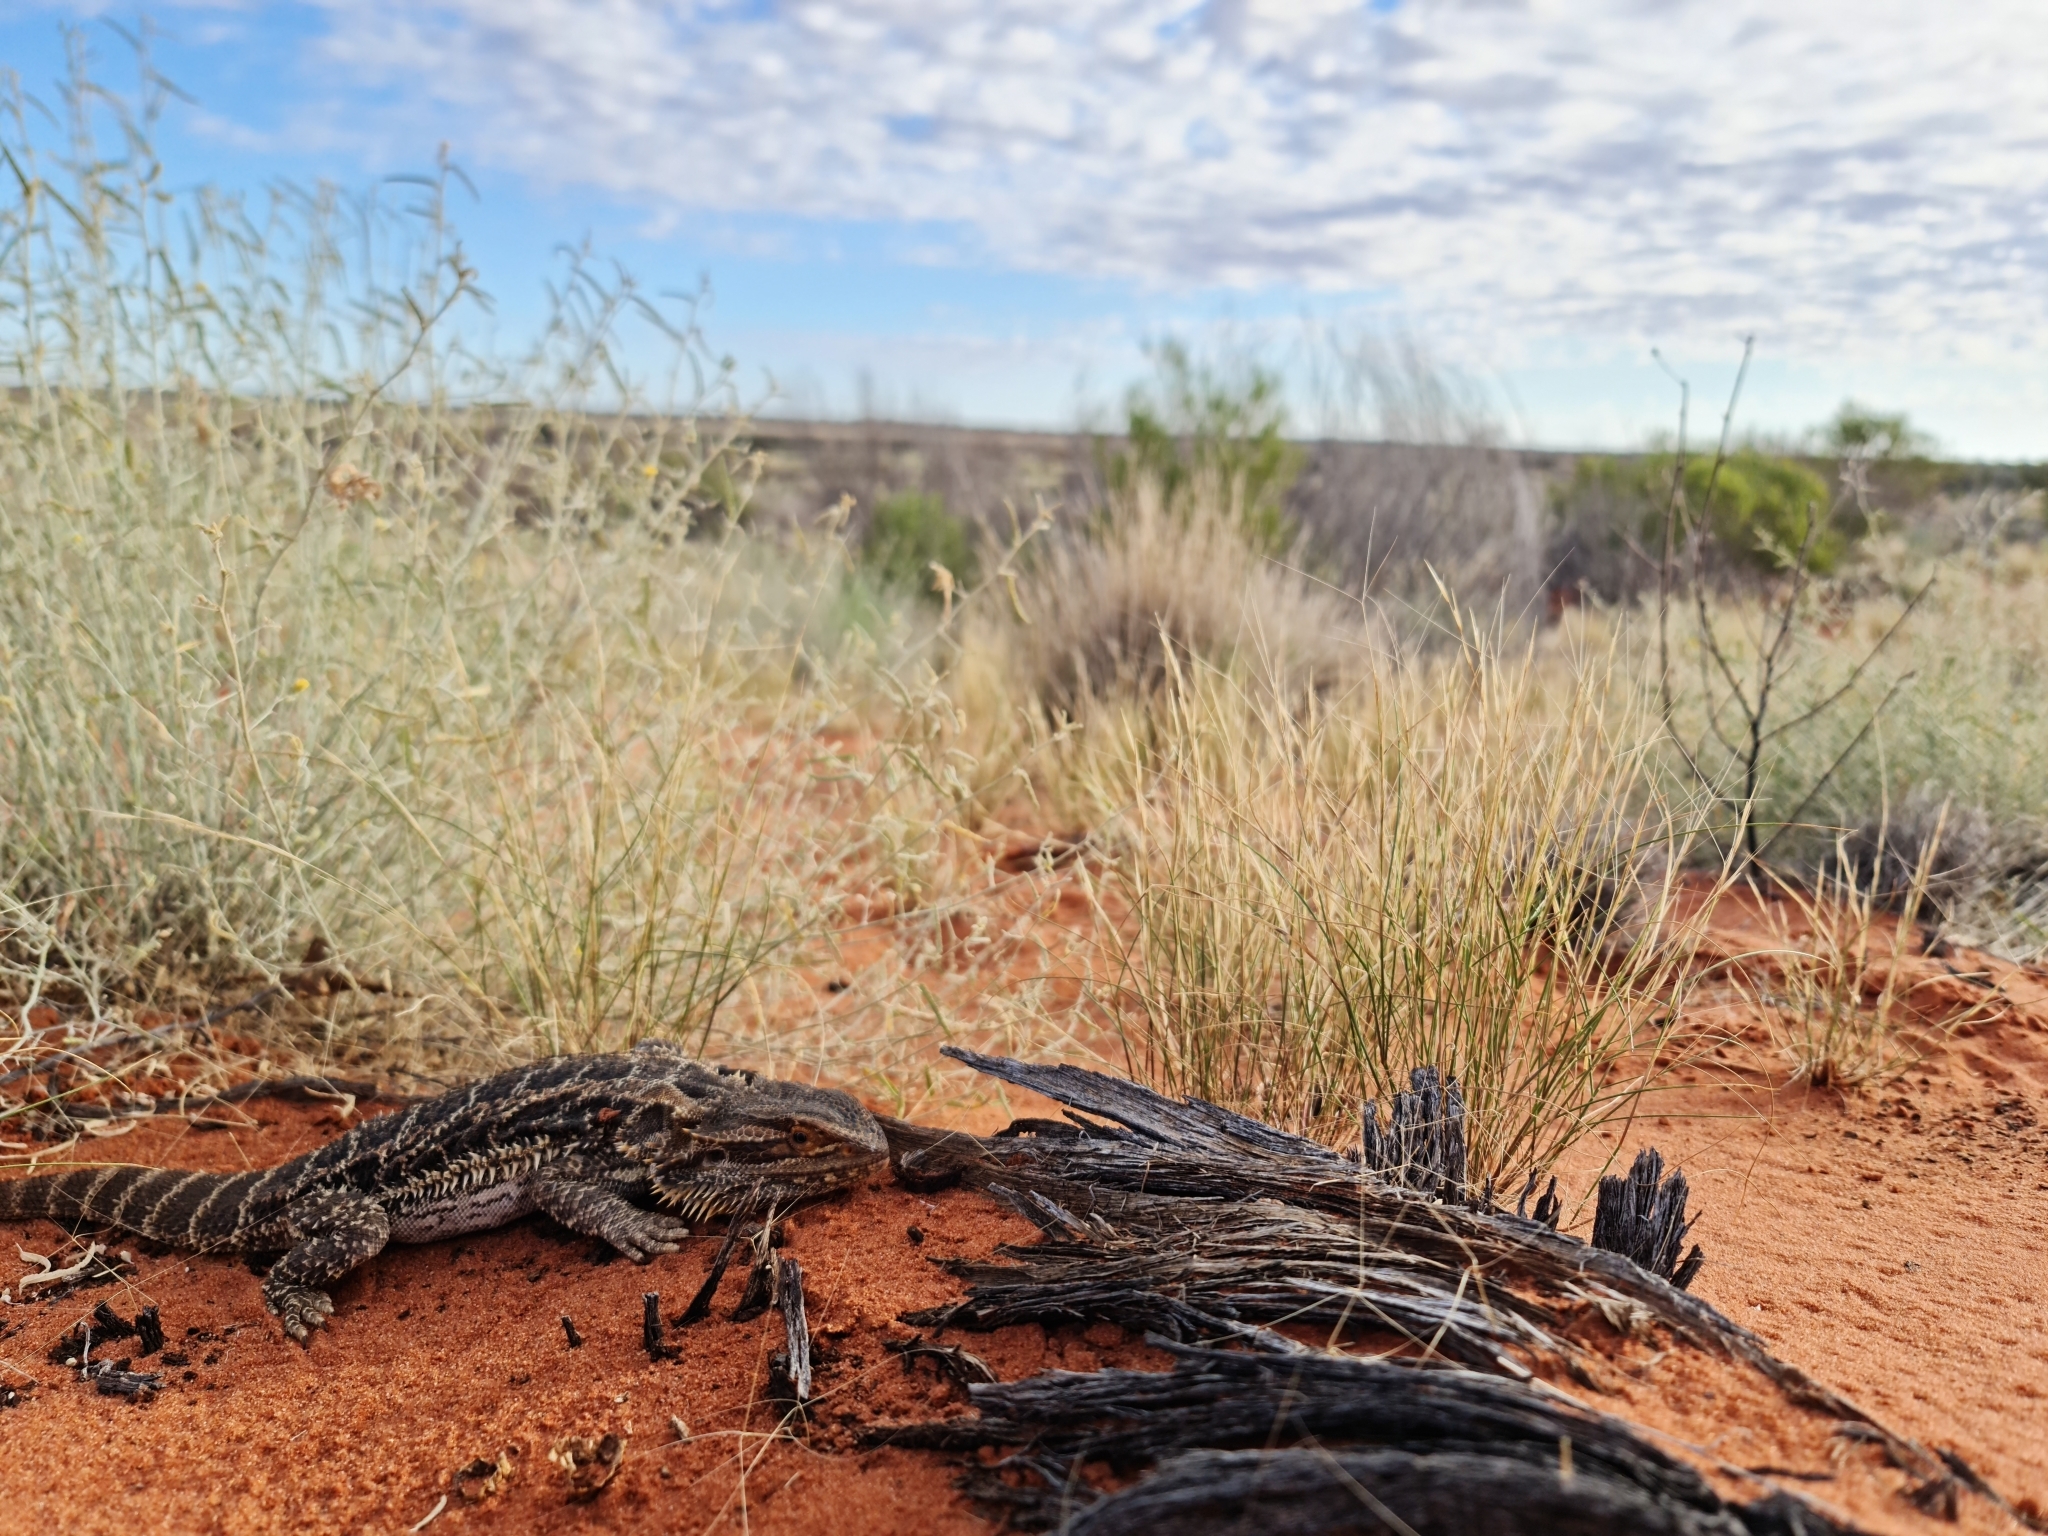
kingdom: Animalia
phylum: Chordata
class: Squamata
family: Agamidae
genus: Pogona
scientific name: Pogona vitticeps
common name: Central bearded dragon
